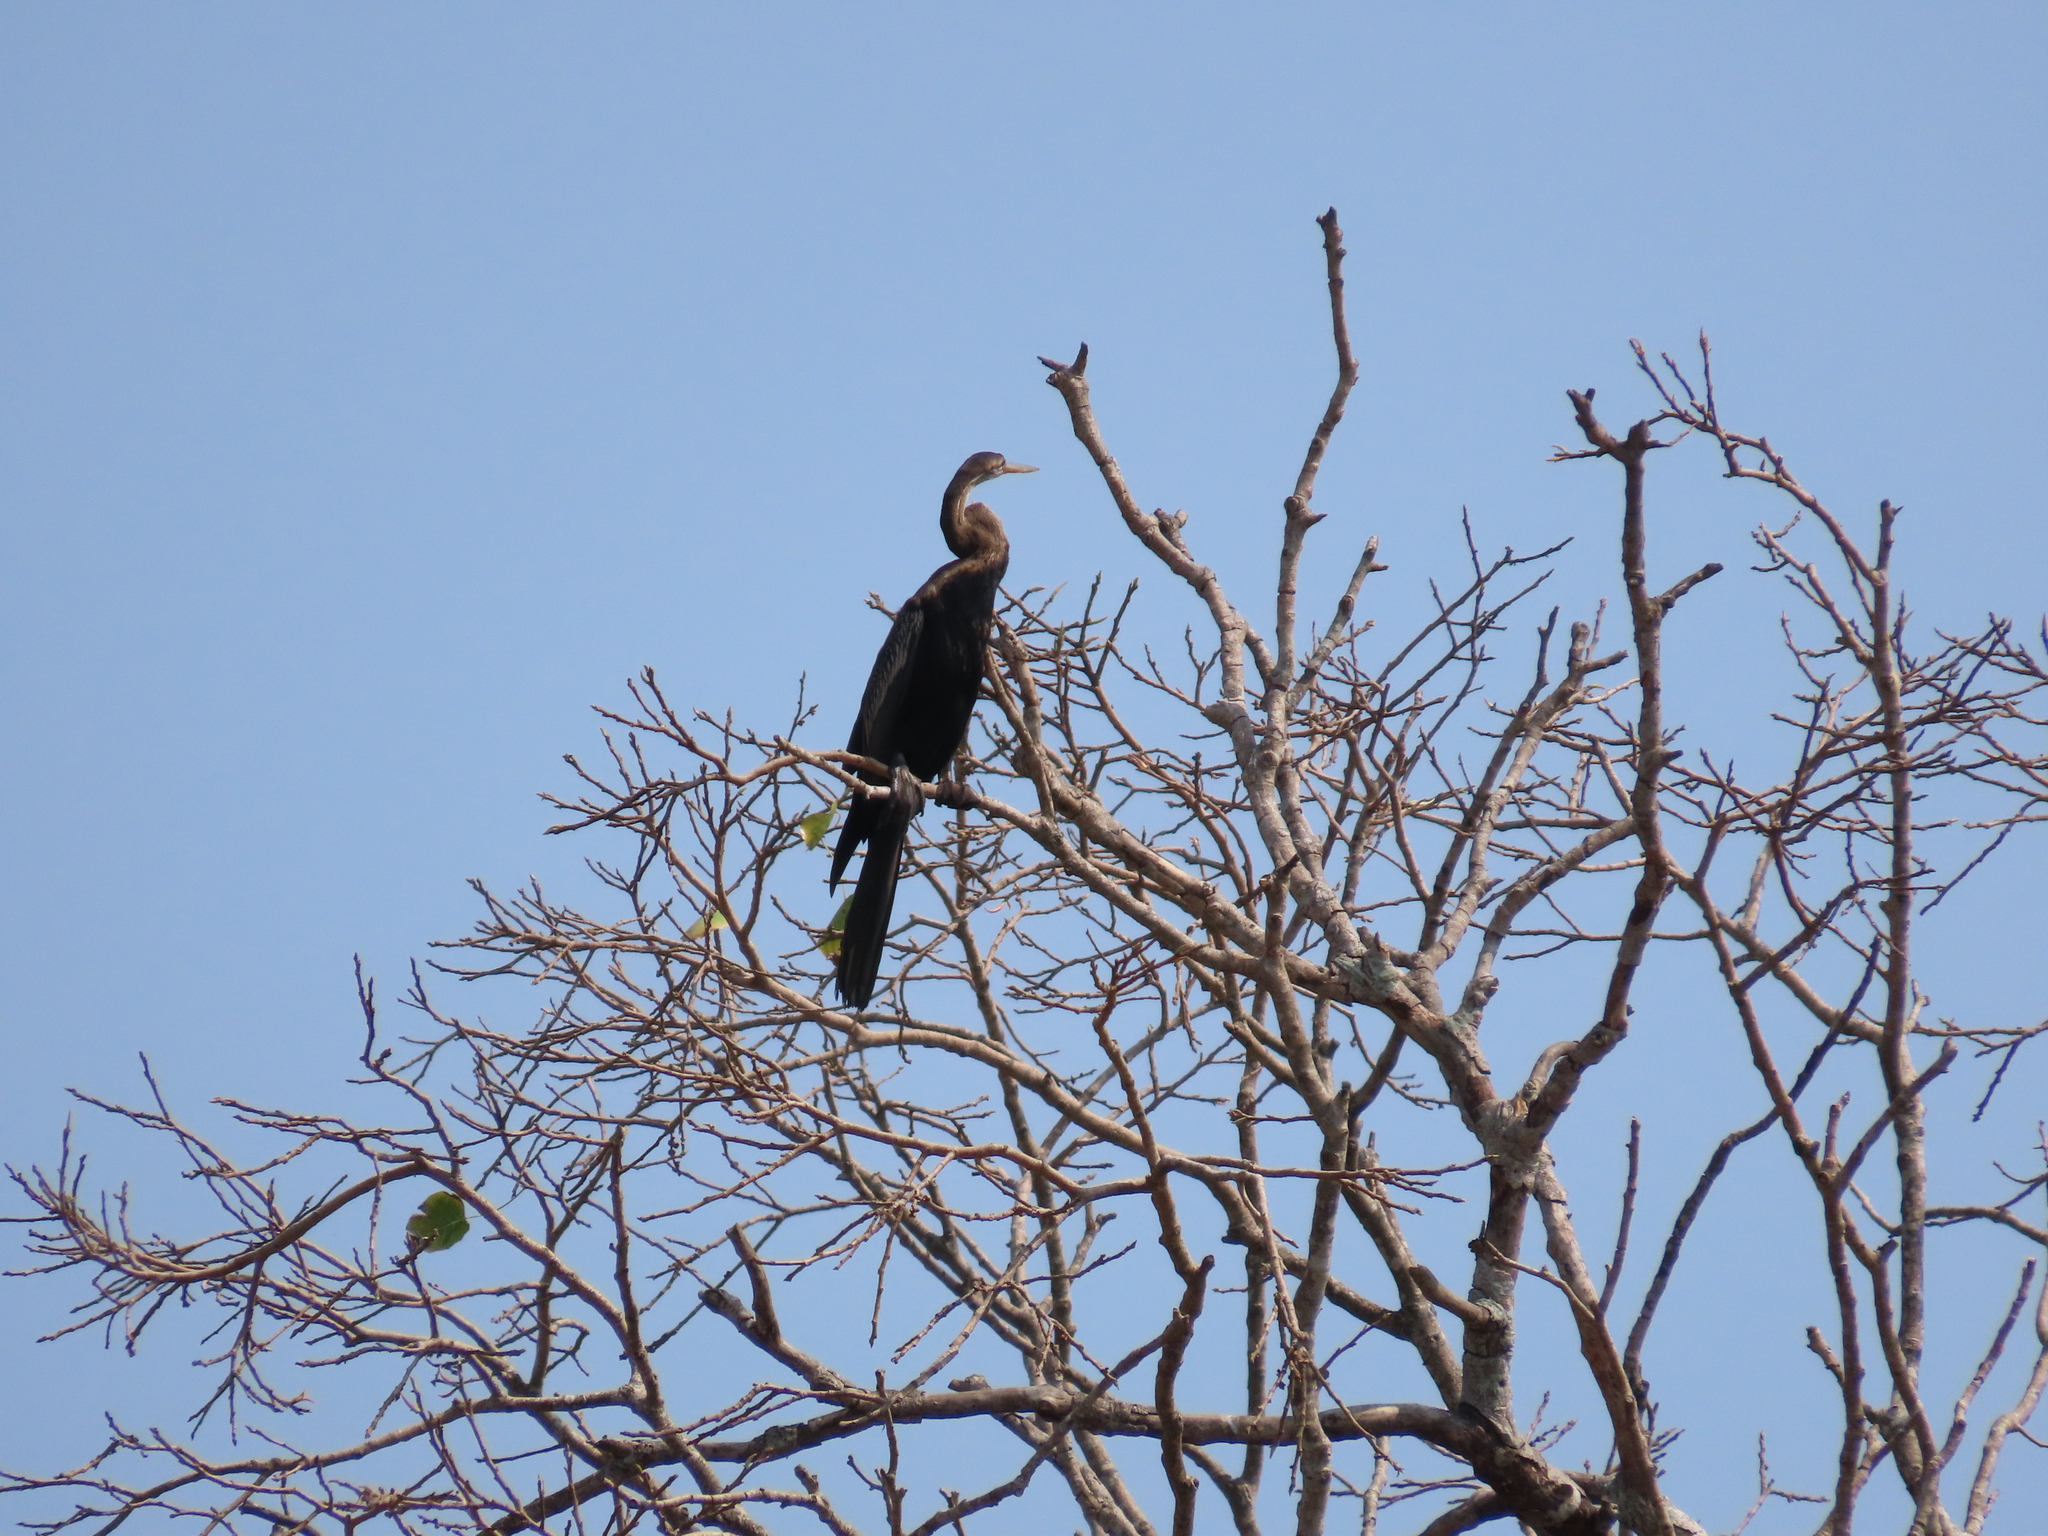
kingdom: Animalia
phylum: Chordata
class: Aves
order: Suliformes
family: Anhingidae
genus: Anhinga
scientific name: Anhinga melanogaster
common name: Oriental darter
